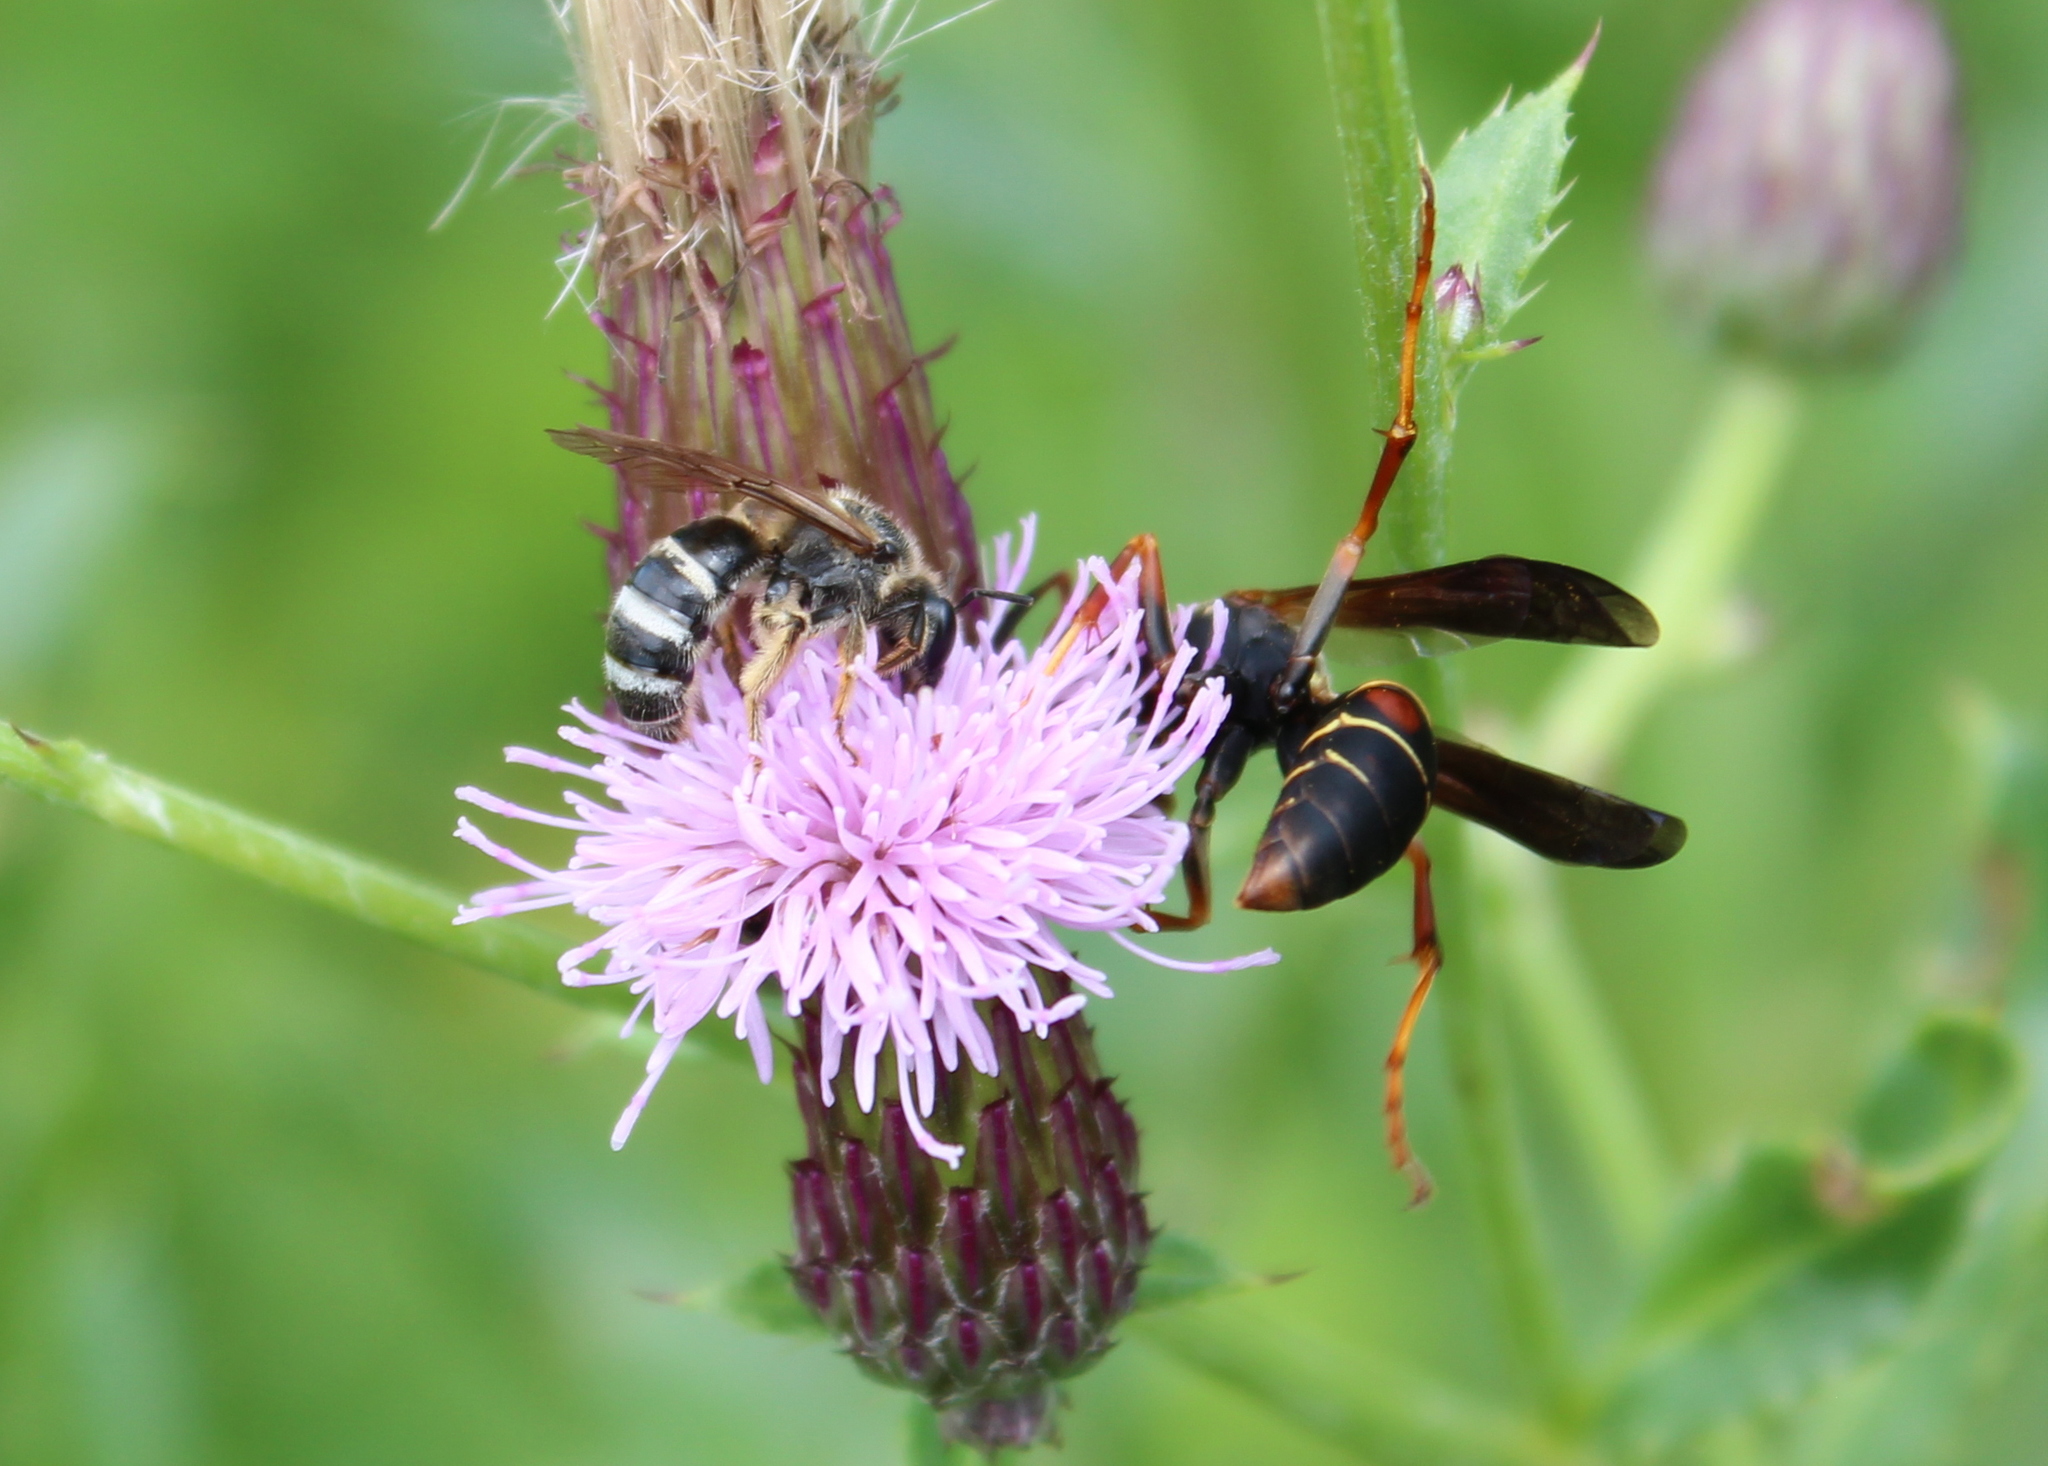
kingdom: Animalia
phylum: Arthropoda
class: Insecta
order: Hymenoptera
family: Eumenidae
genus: Polistes
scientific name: Polistes fuscatus
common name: Dark paper wasp
